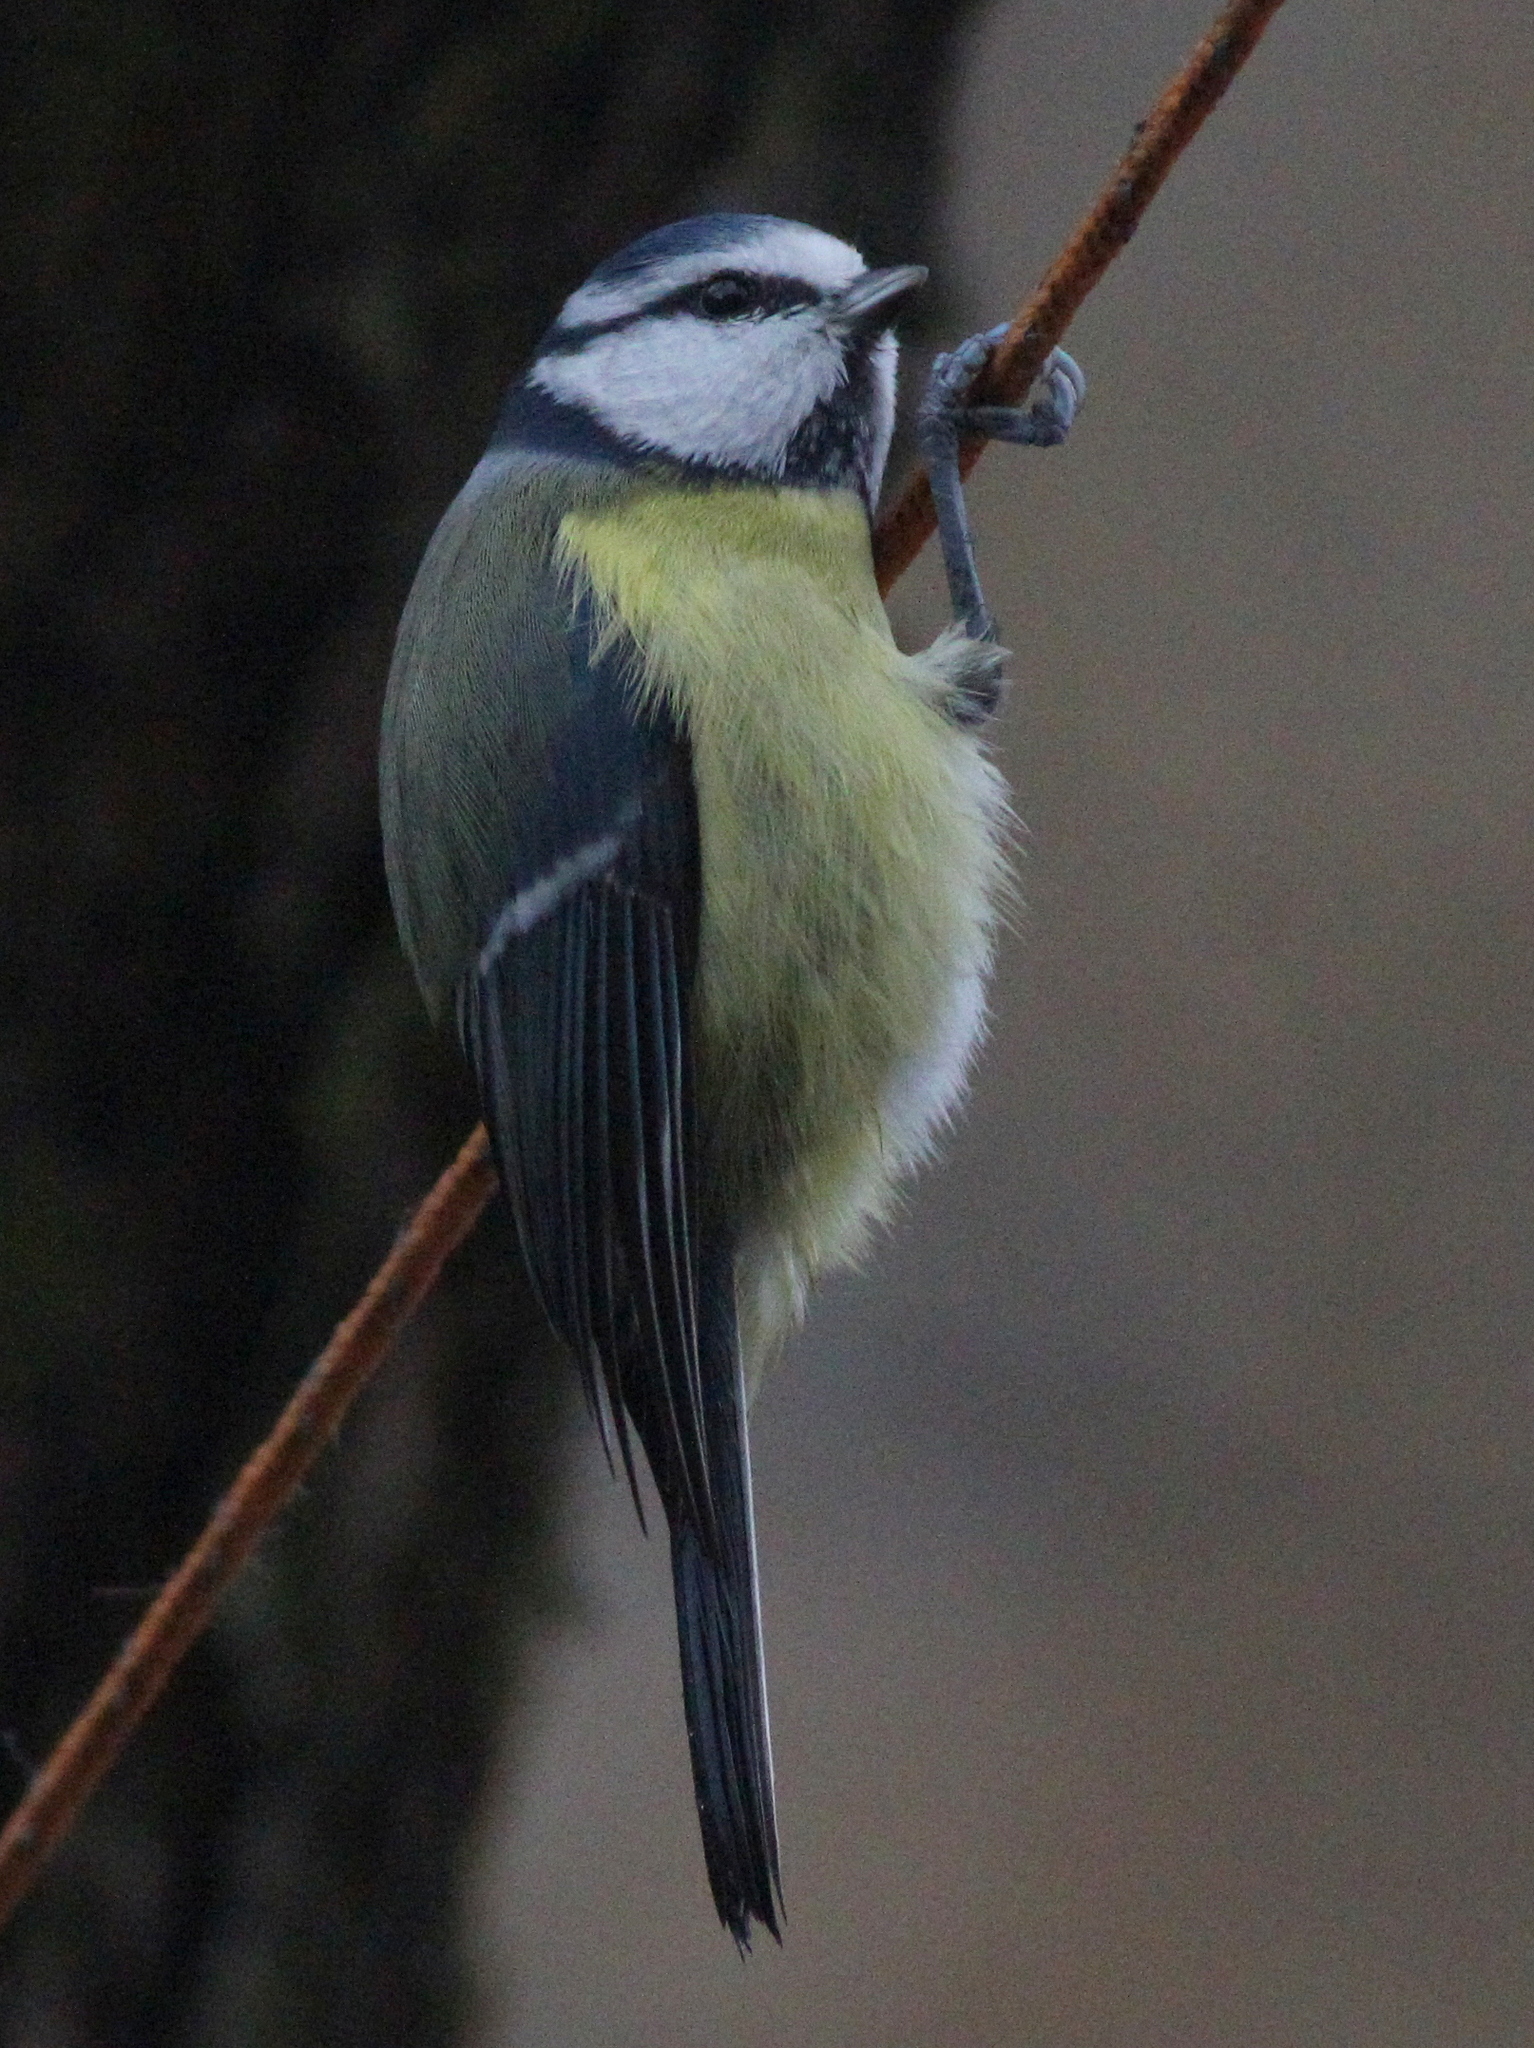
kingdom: Animalia
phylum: Chordata
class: Aves
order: Passeriformes
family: Paridae
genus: Cyanistes
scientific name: Cyanistes caeruleus
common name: Eurasian blue tit
